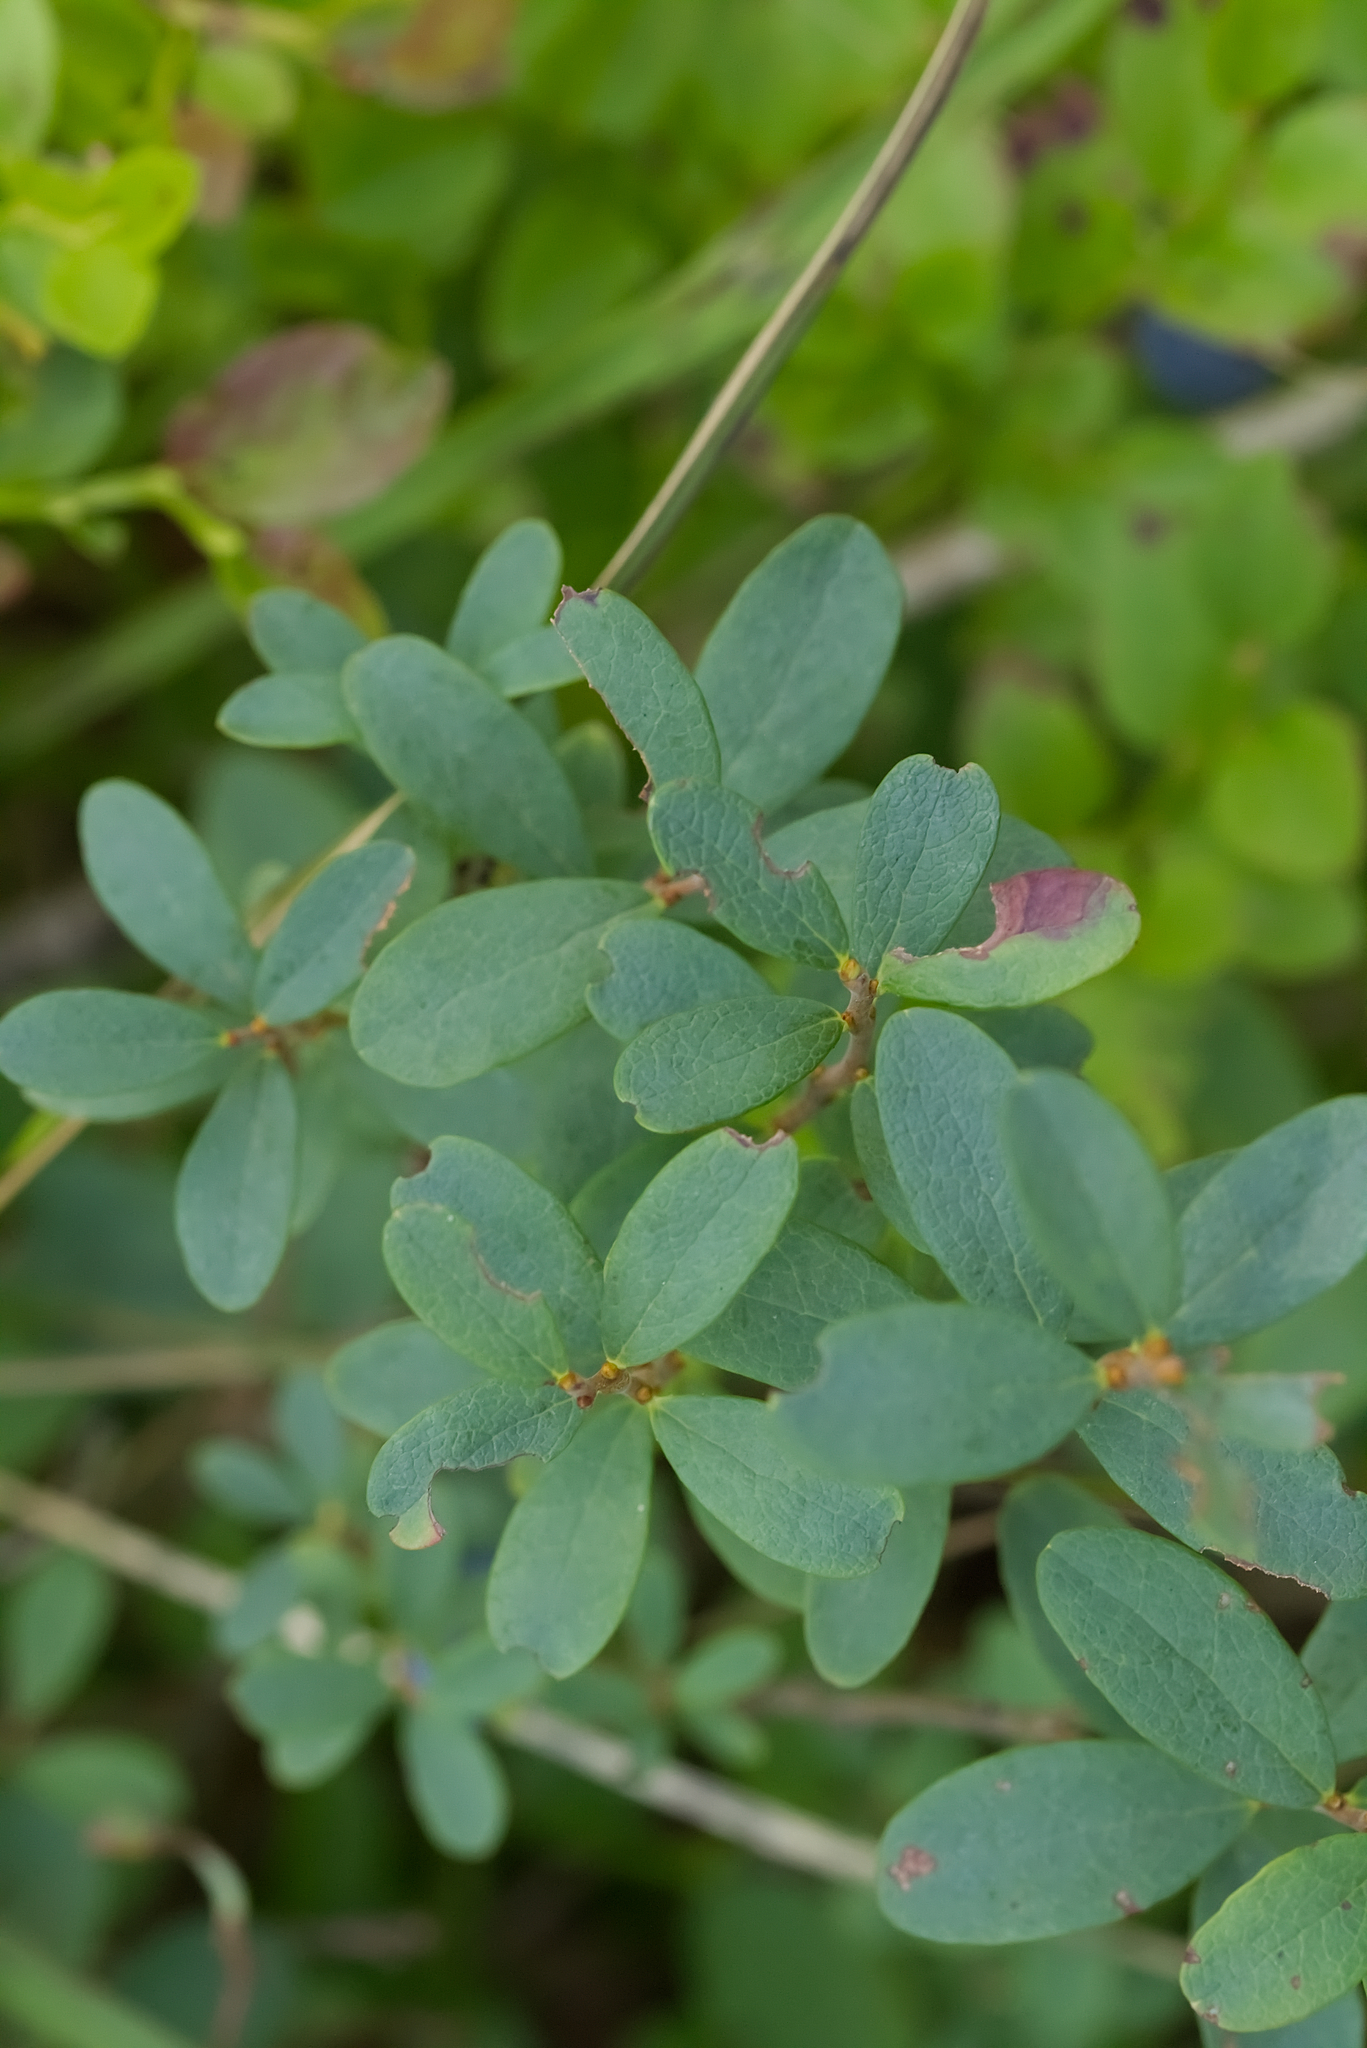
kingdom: Plantae
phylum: Tracheophyta
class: Magnoliopsida
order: Ericales
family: Ericaceae
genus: Vaccinium
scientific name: Vaccinium uliginosum
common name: Bog bilberry
